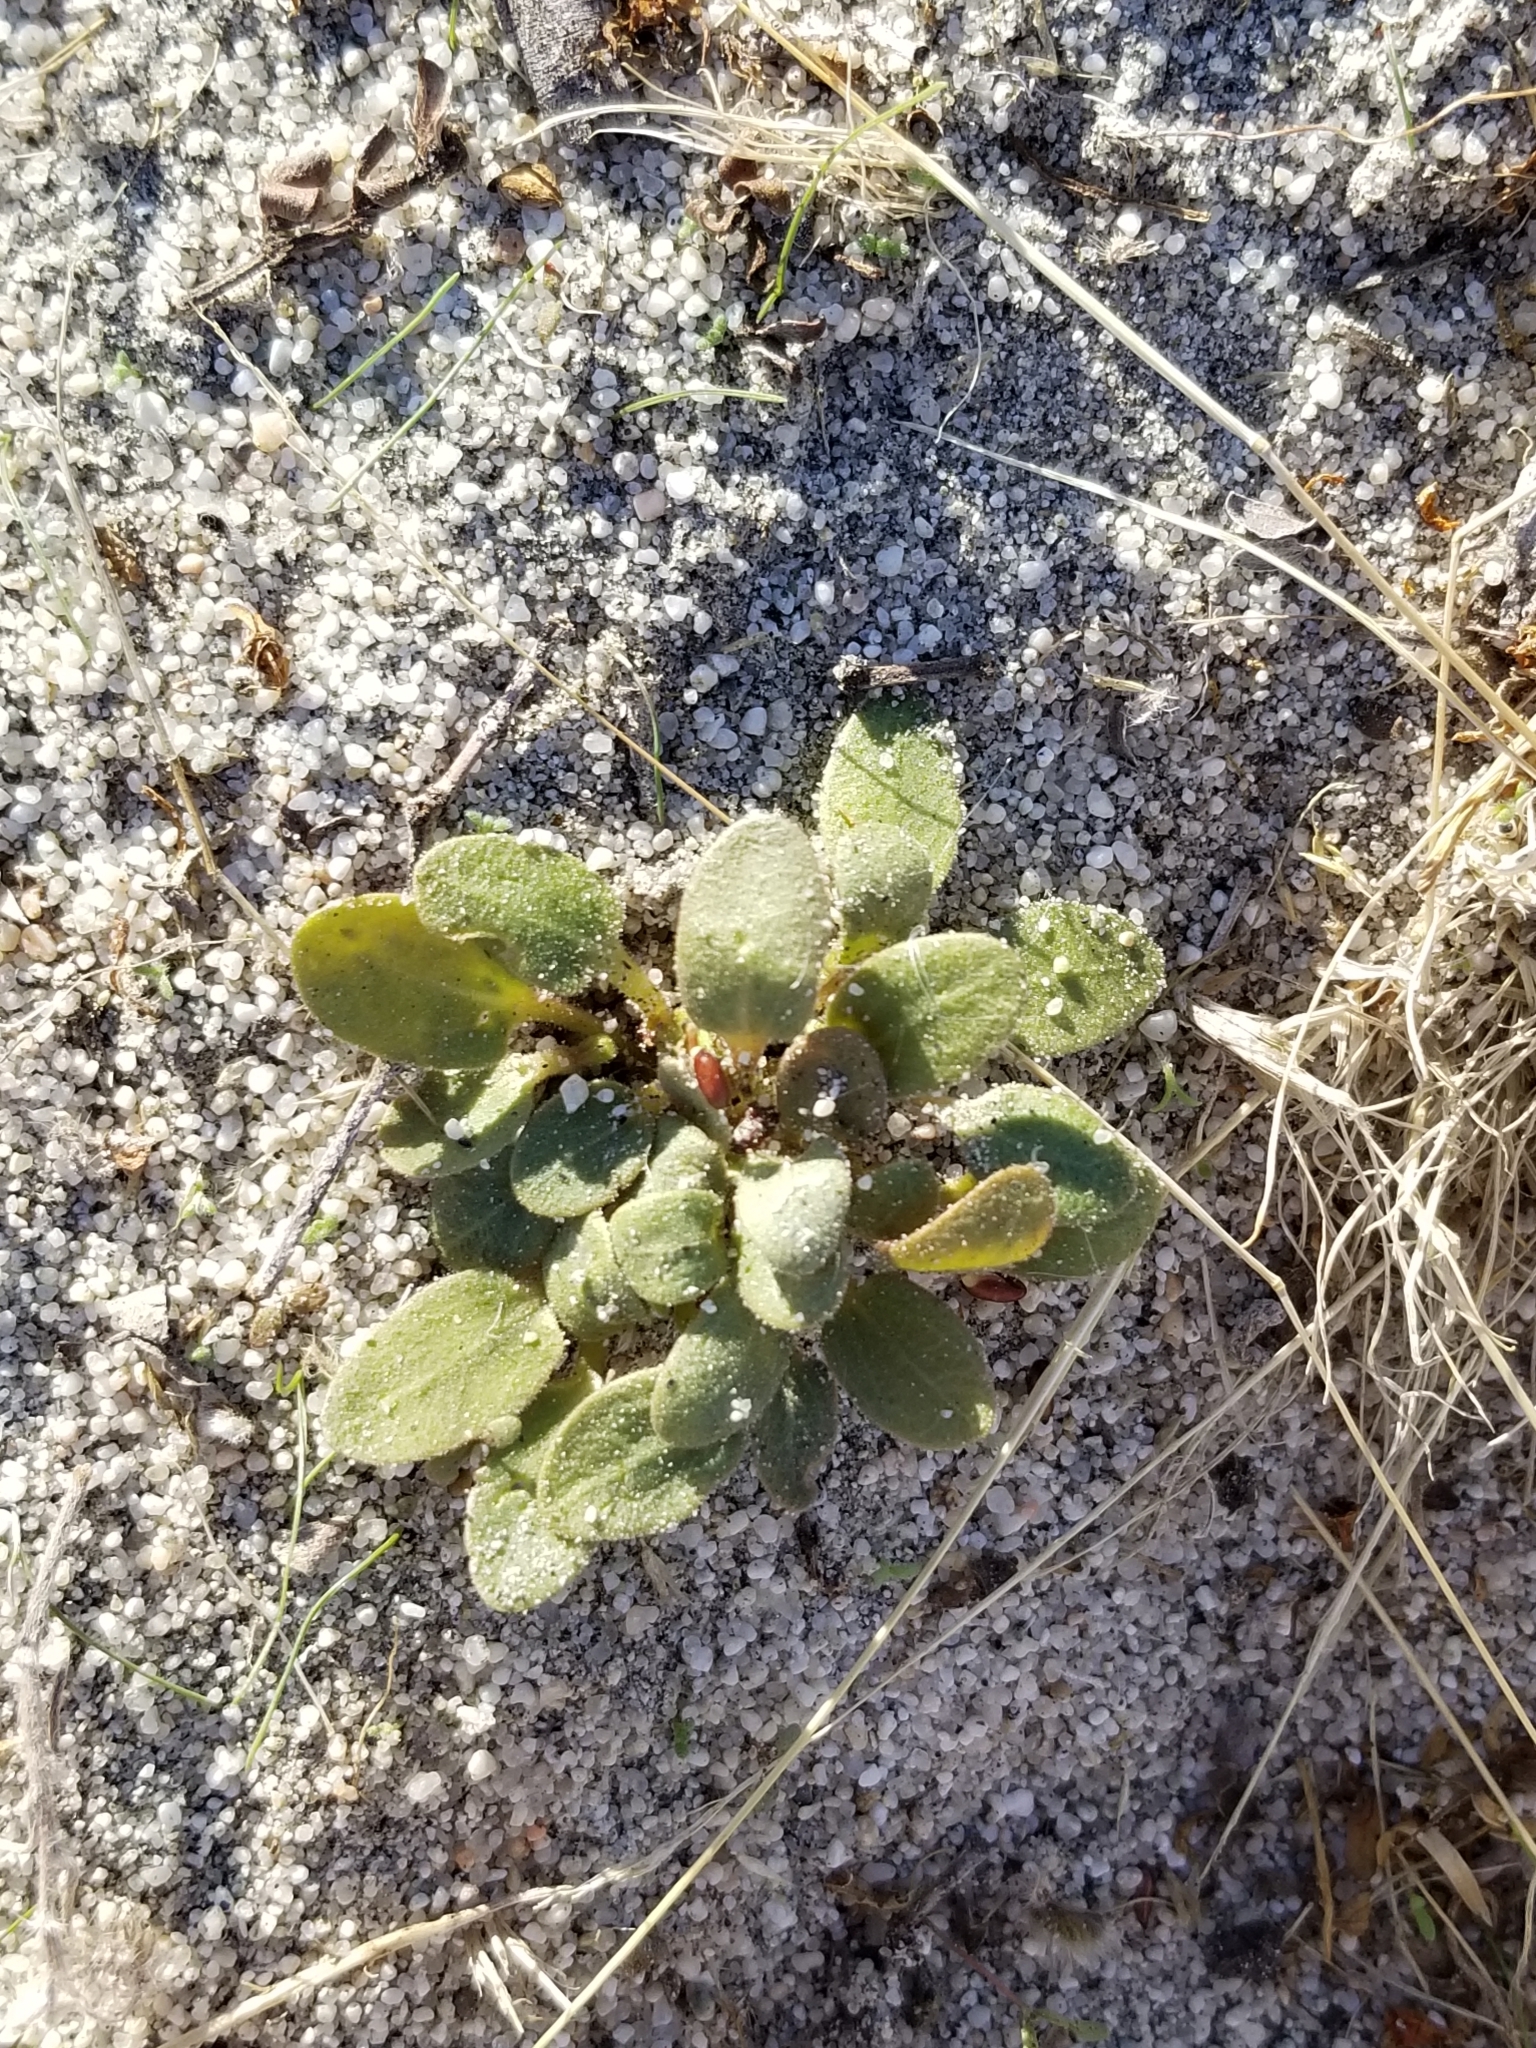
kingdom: Plantae
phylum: Tracheophyta
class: Magnoliopsida
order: Caryophyllales
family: Nyctaginaceae
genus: Abronia
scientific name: Abronia villosa
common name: Desert sand-verbena
